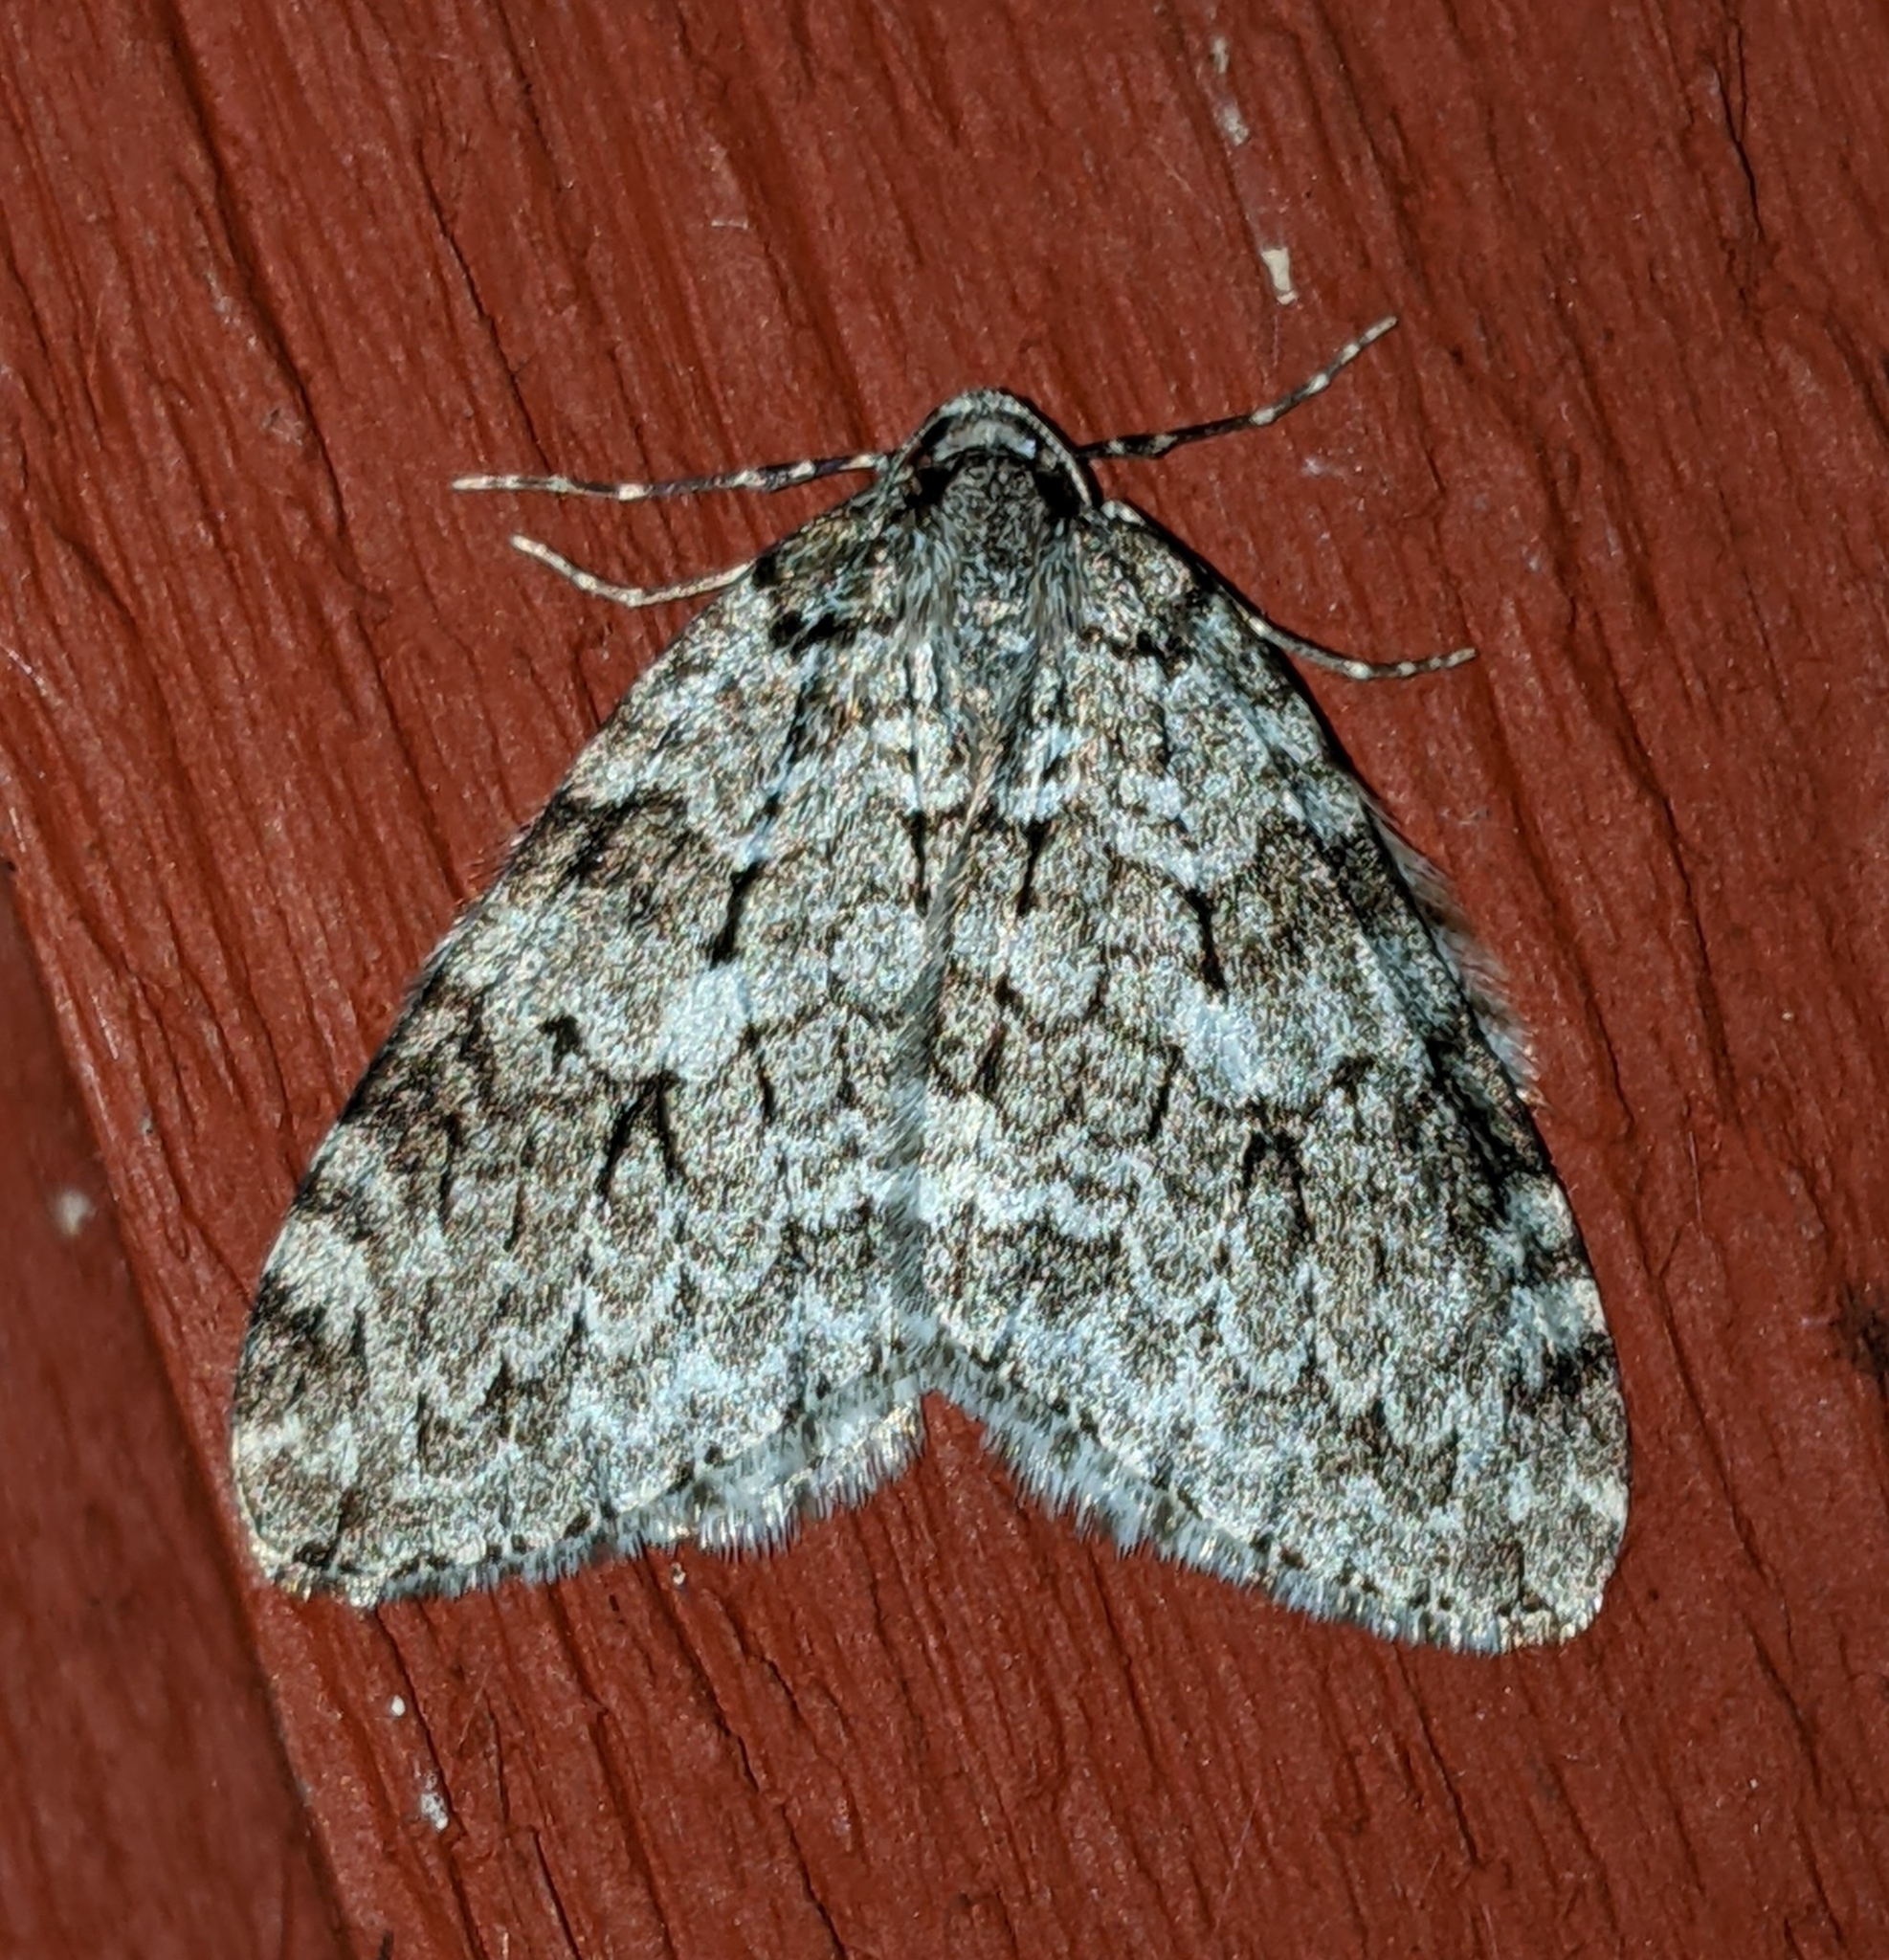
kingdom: Animalia
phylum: Arthropoda
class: Insecta
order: Lepidoptera
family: Geometridae
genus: Epirrita
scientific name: Epirrita autumnata
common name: Autumnal moth
